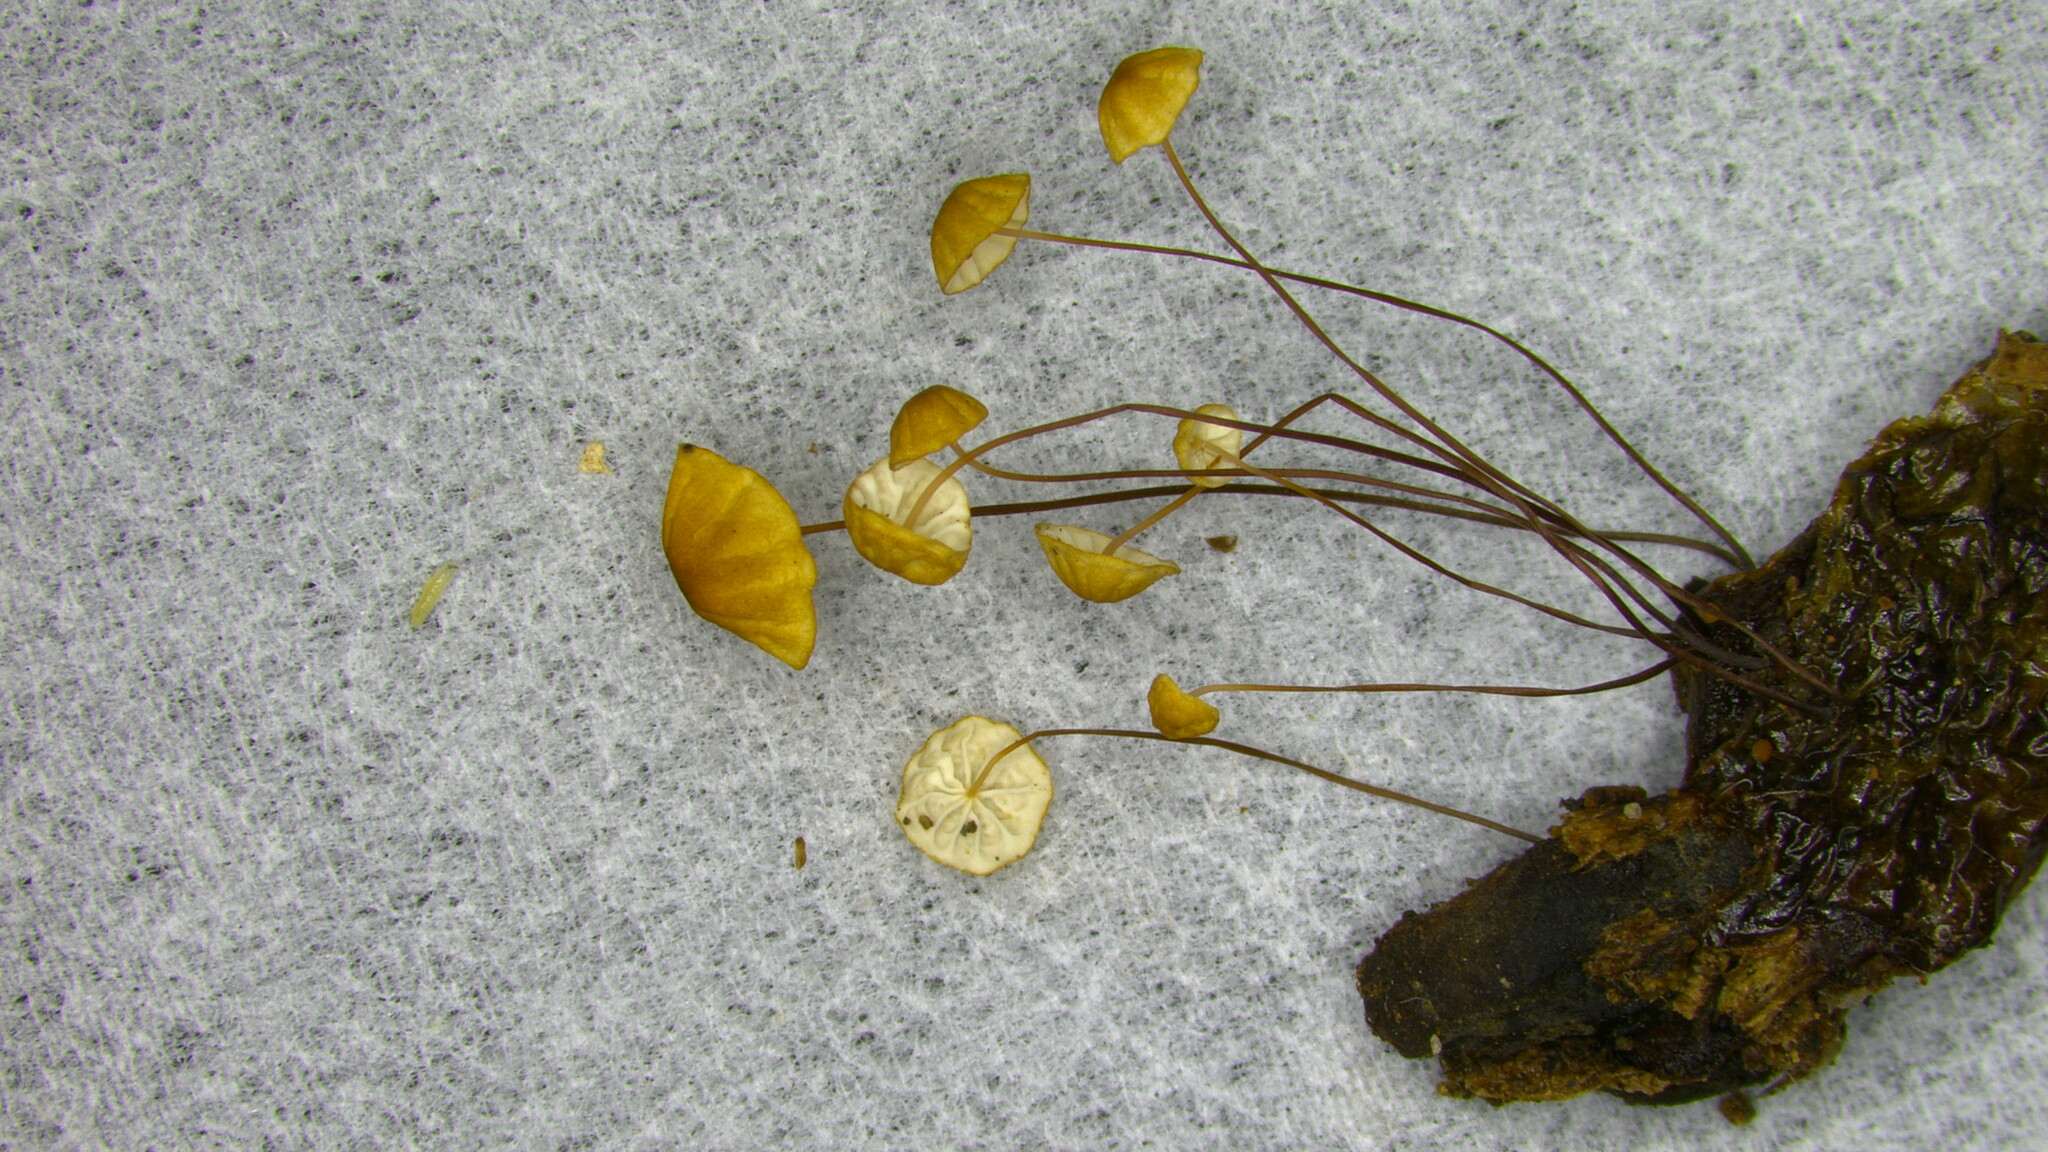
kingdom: Fungi
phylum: Basidiomycota
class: Agaricomycetes
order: Agaricales
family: Physalacriaceae
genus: Cryptomarasmius
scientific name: Cryptomarasmius aucubae
